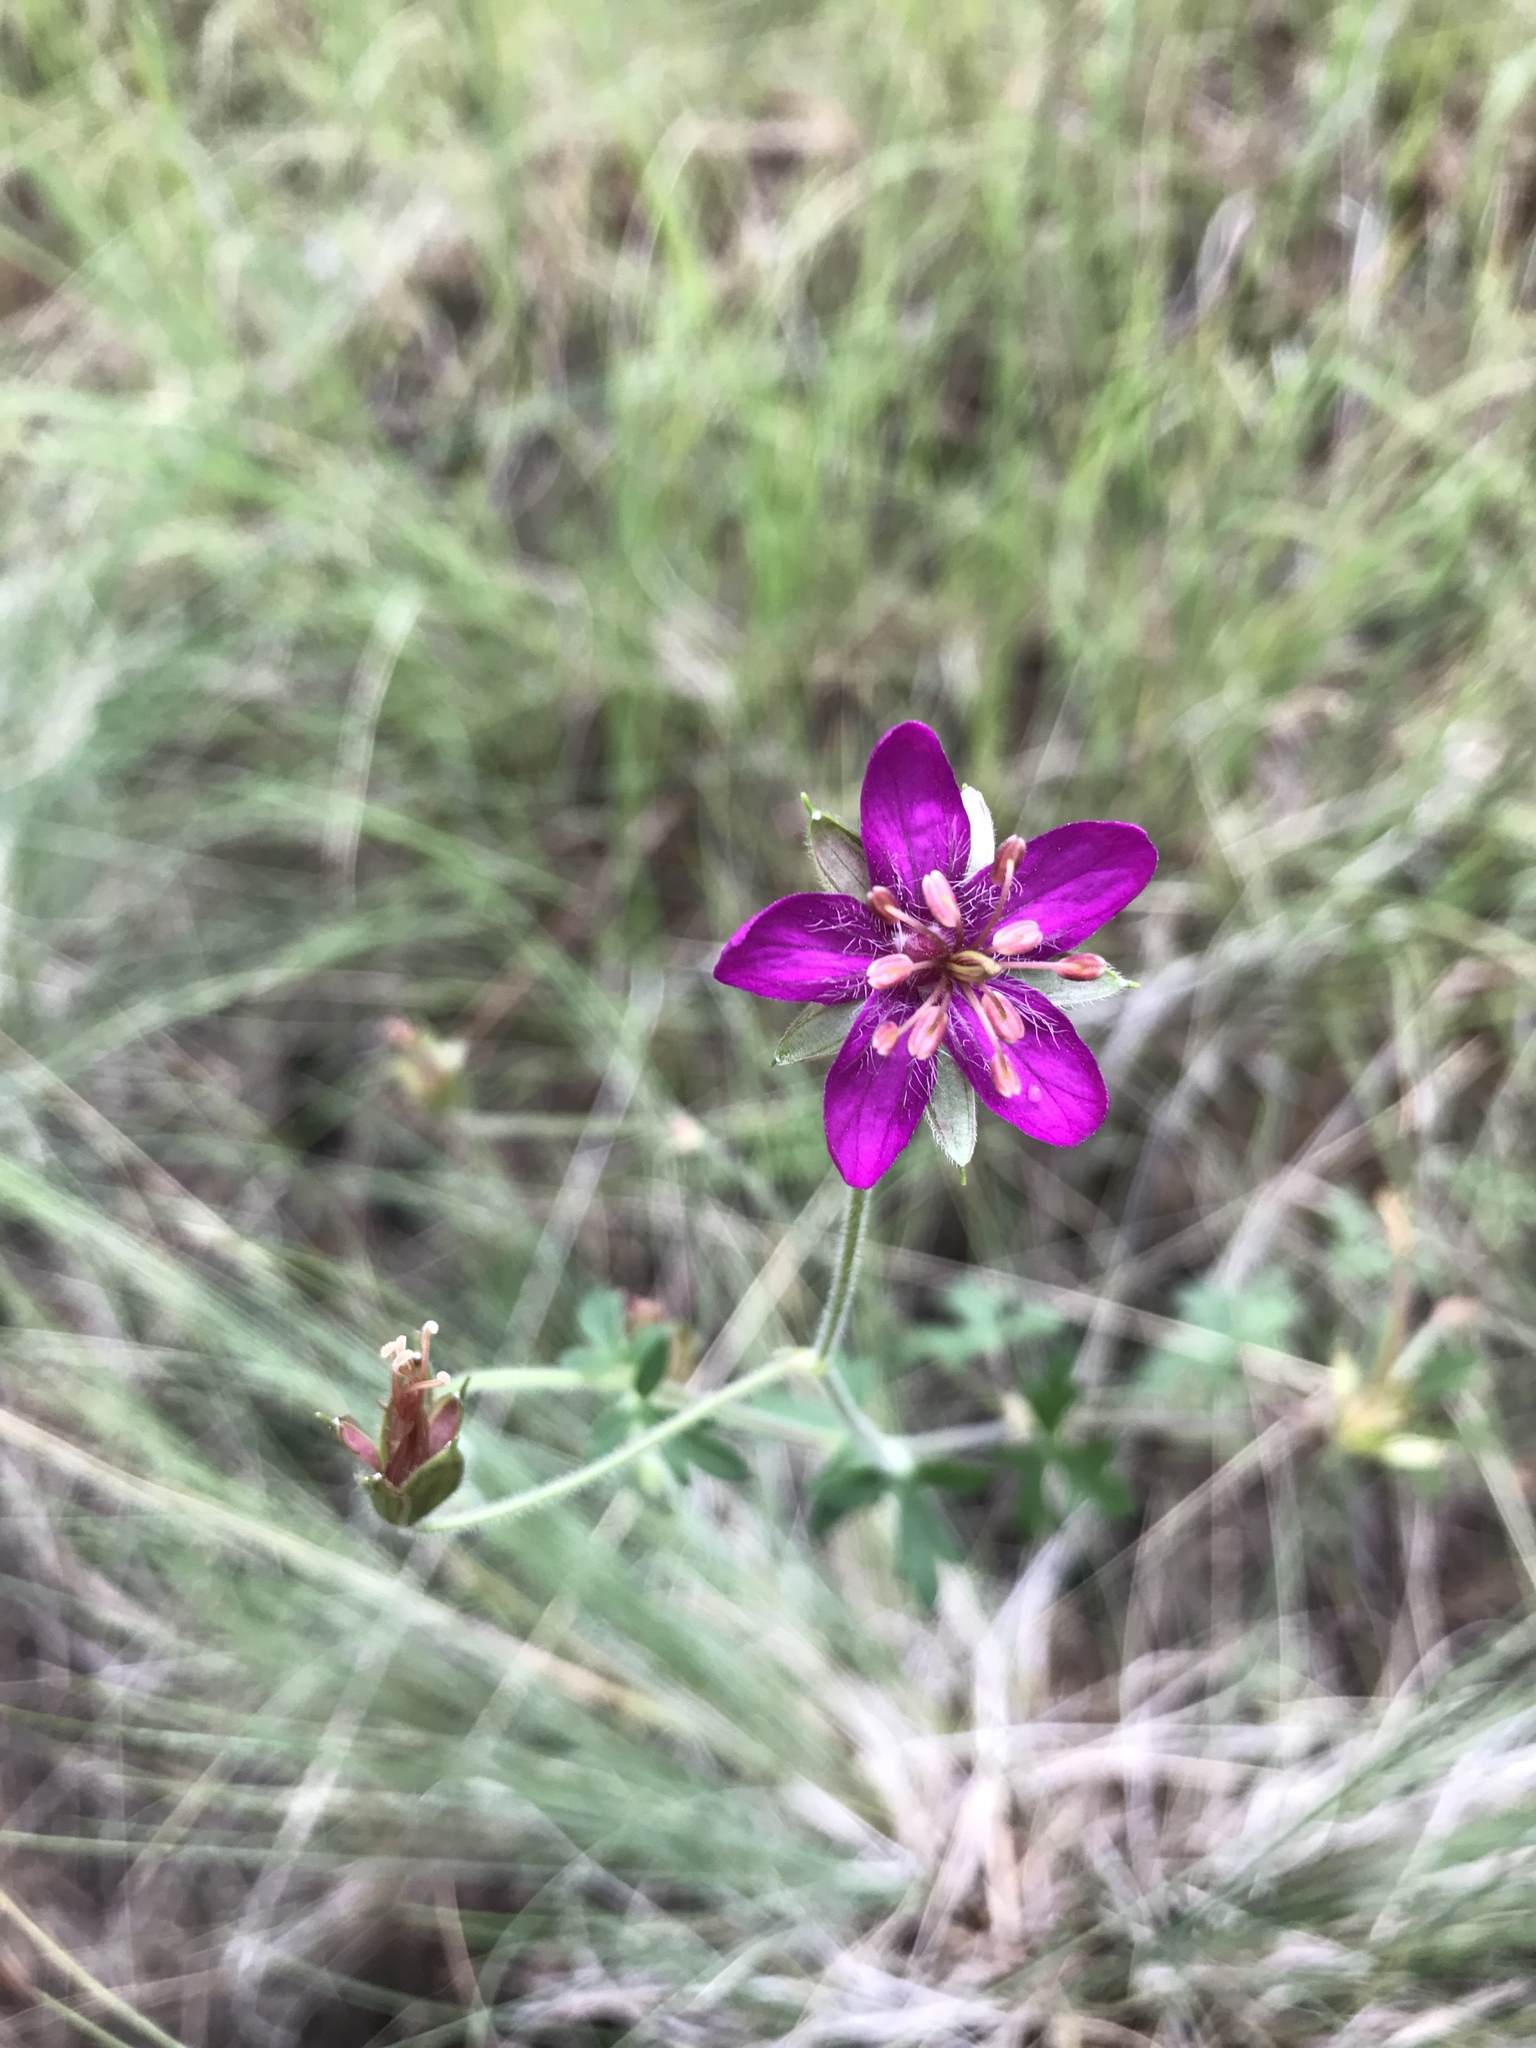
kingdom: Plantae
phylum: Tracheophyta
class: Magnoliopsida
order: Geraniales
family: Geraniaceae
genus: Geranium
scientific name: Geranium caespitosum
